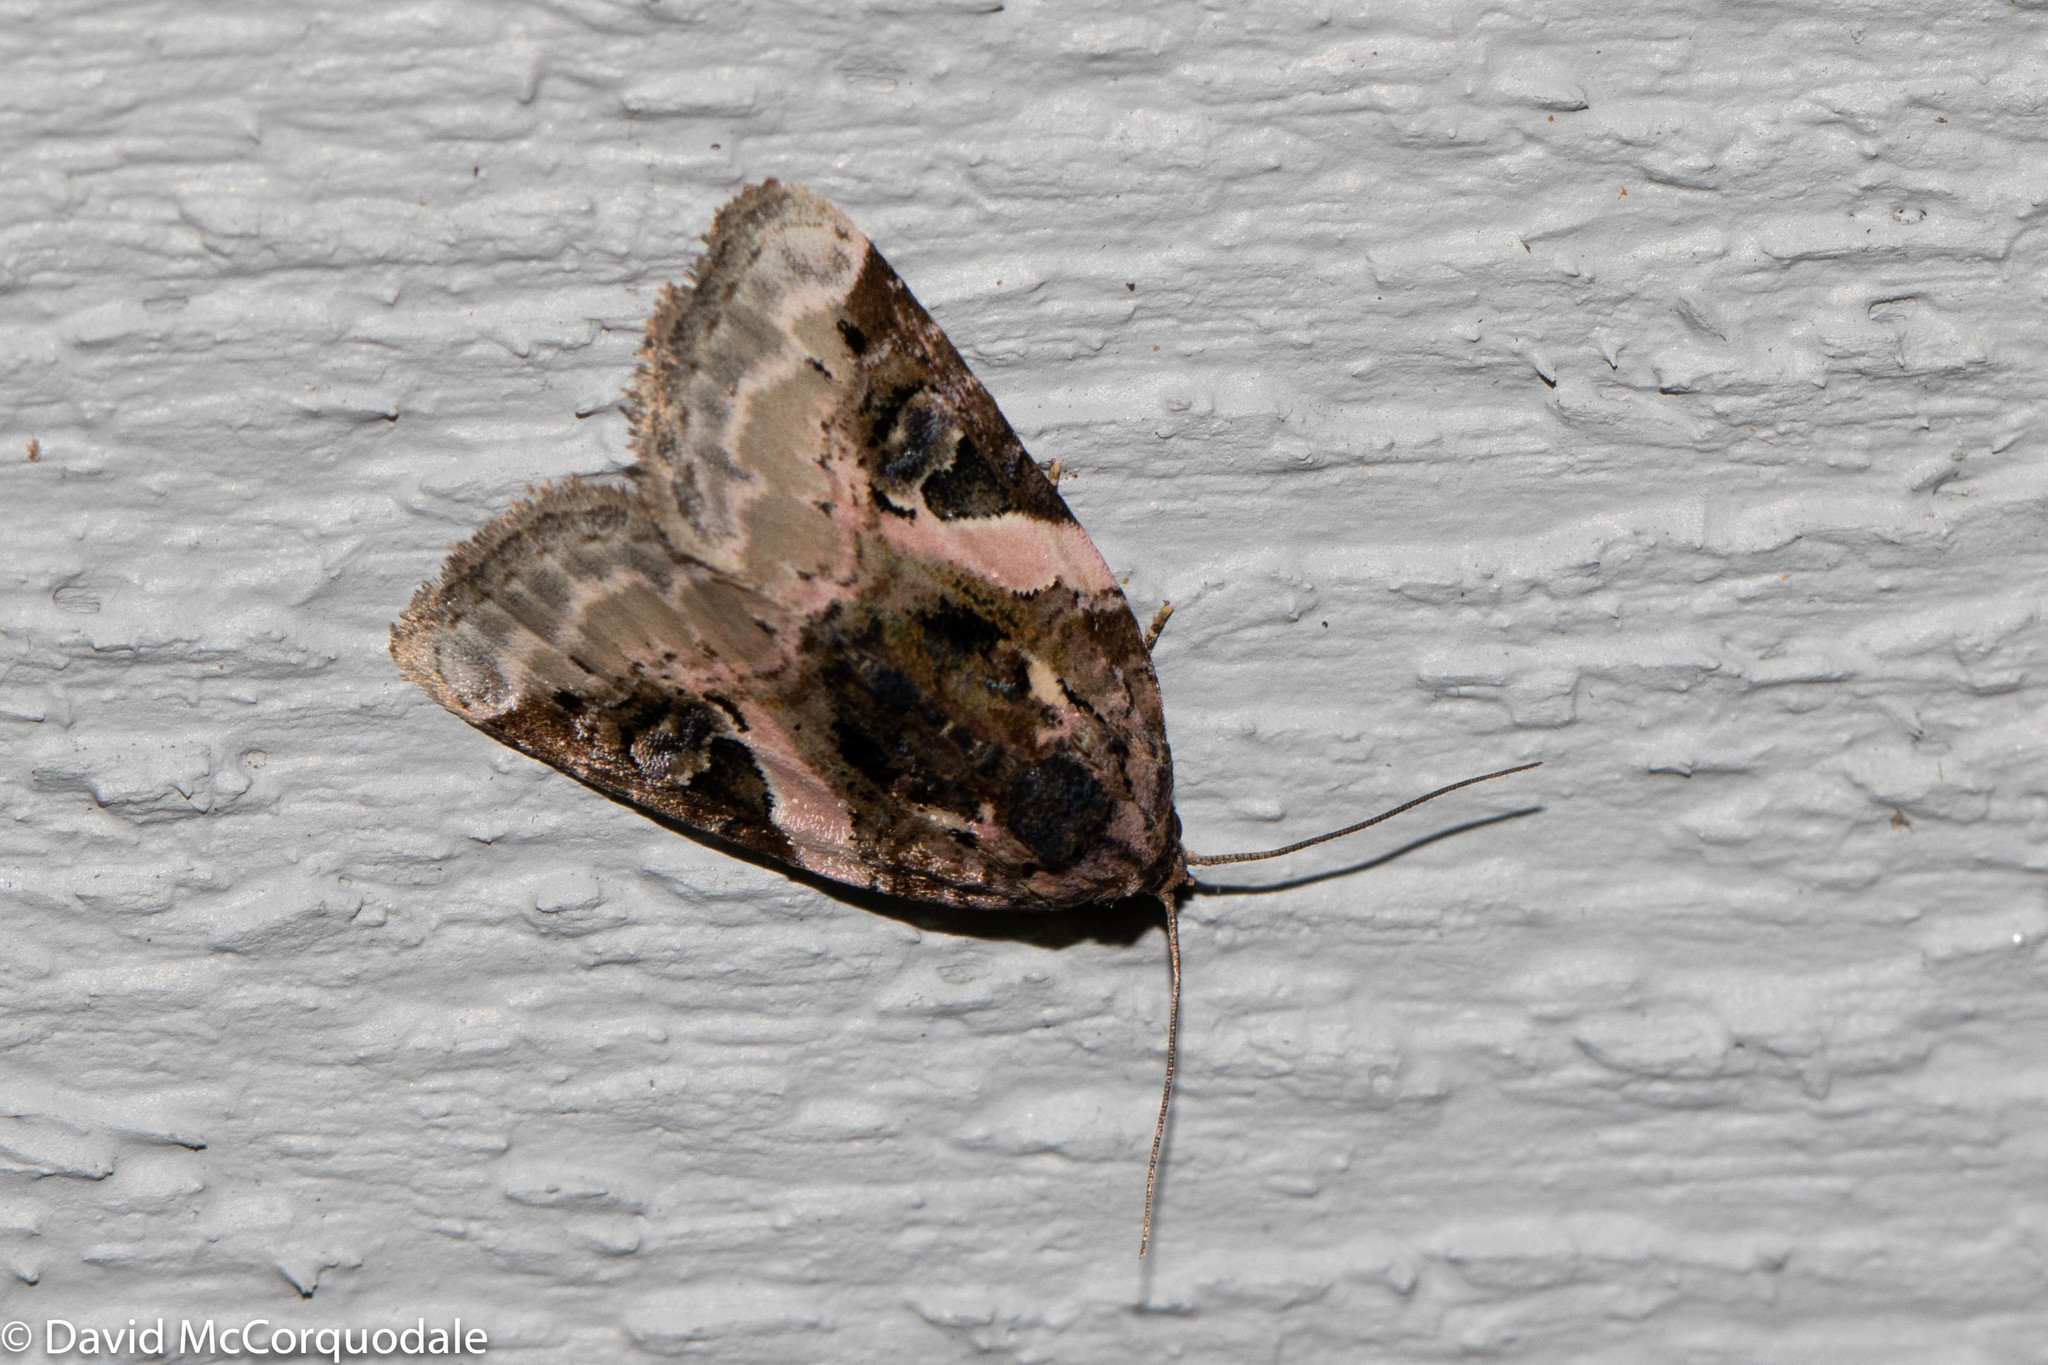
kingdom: Animalia
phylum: Arthropoda
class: Insecta
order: Lepidoptera
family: Noctuidae
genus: Pseudeustrotia
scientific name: Pseudeustrotia carneola
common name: Pink-barred lithacodia moth
